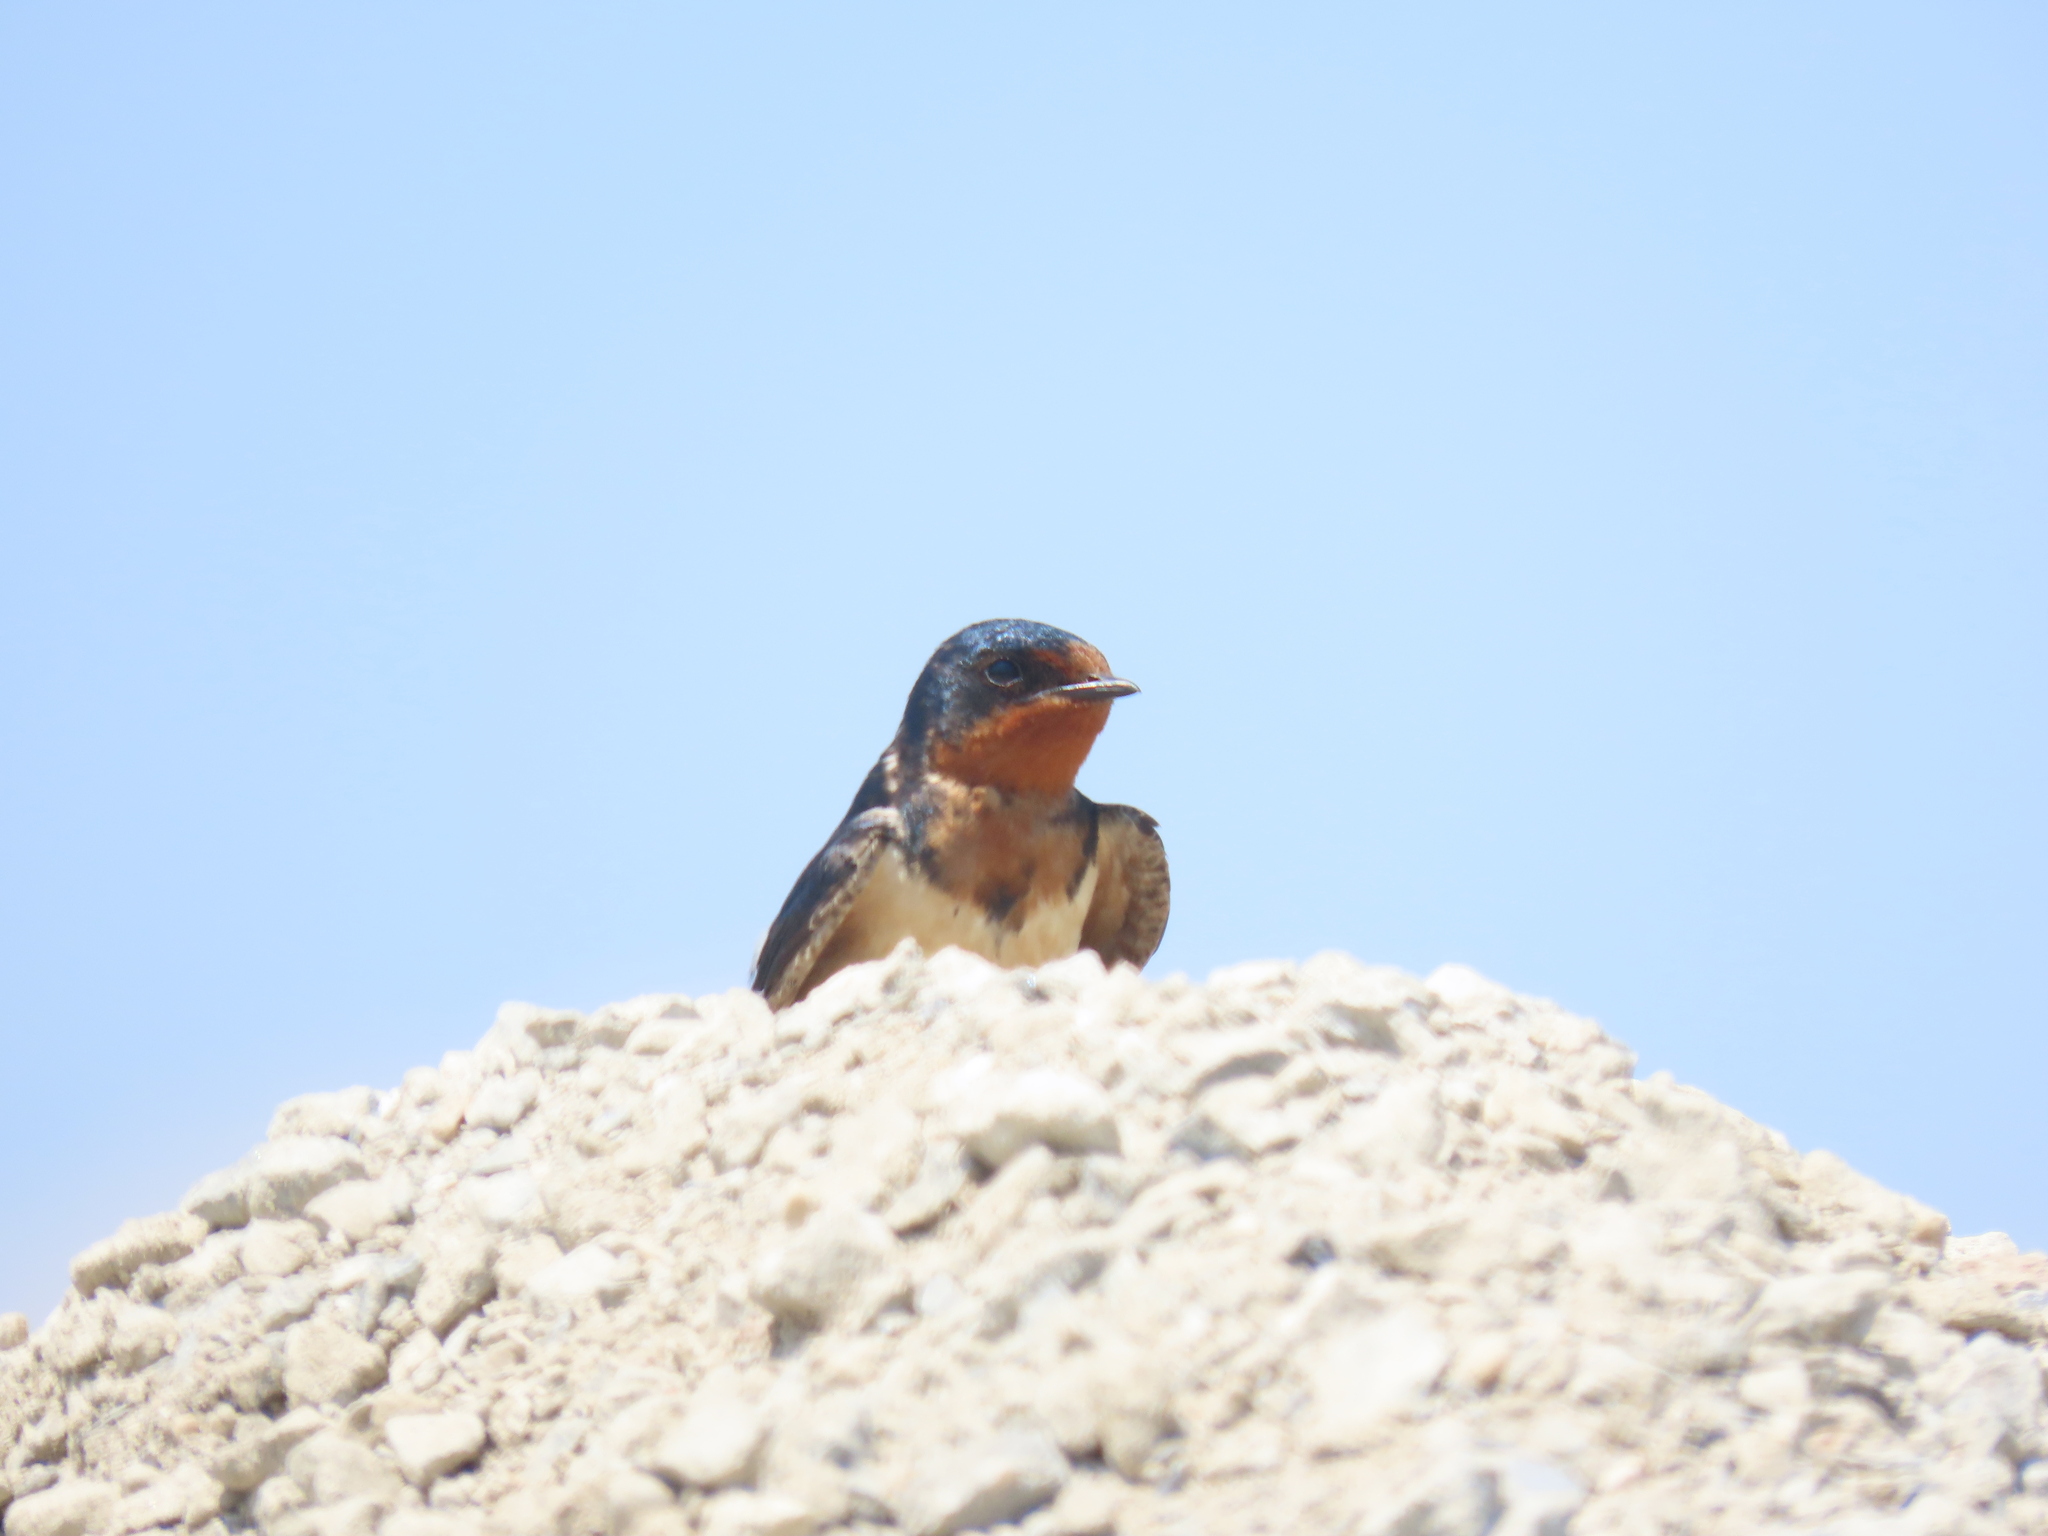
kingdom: Animalia
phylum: Chordata
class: Aves
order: Passeriformes
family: Hirundinidae
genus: Hirundo
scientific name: Hirundo rustica
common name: Barn swallow
